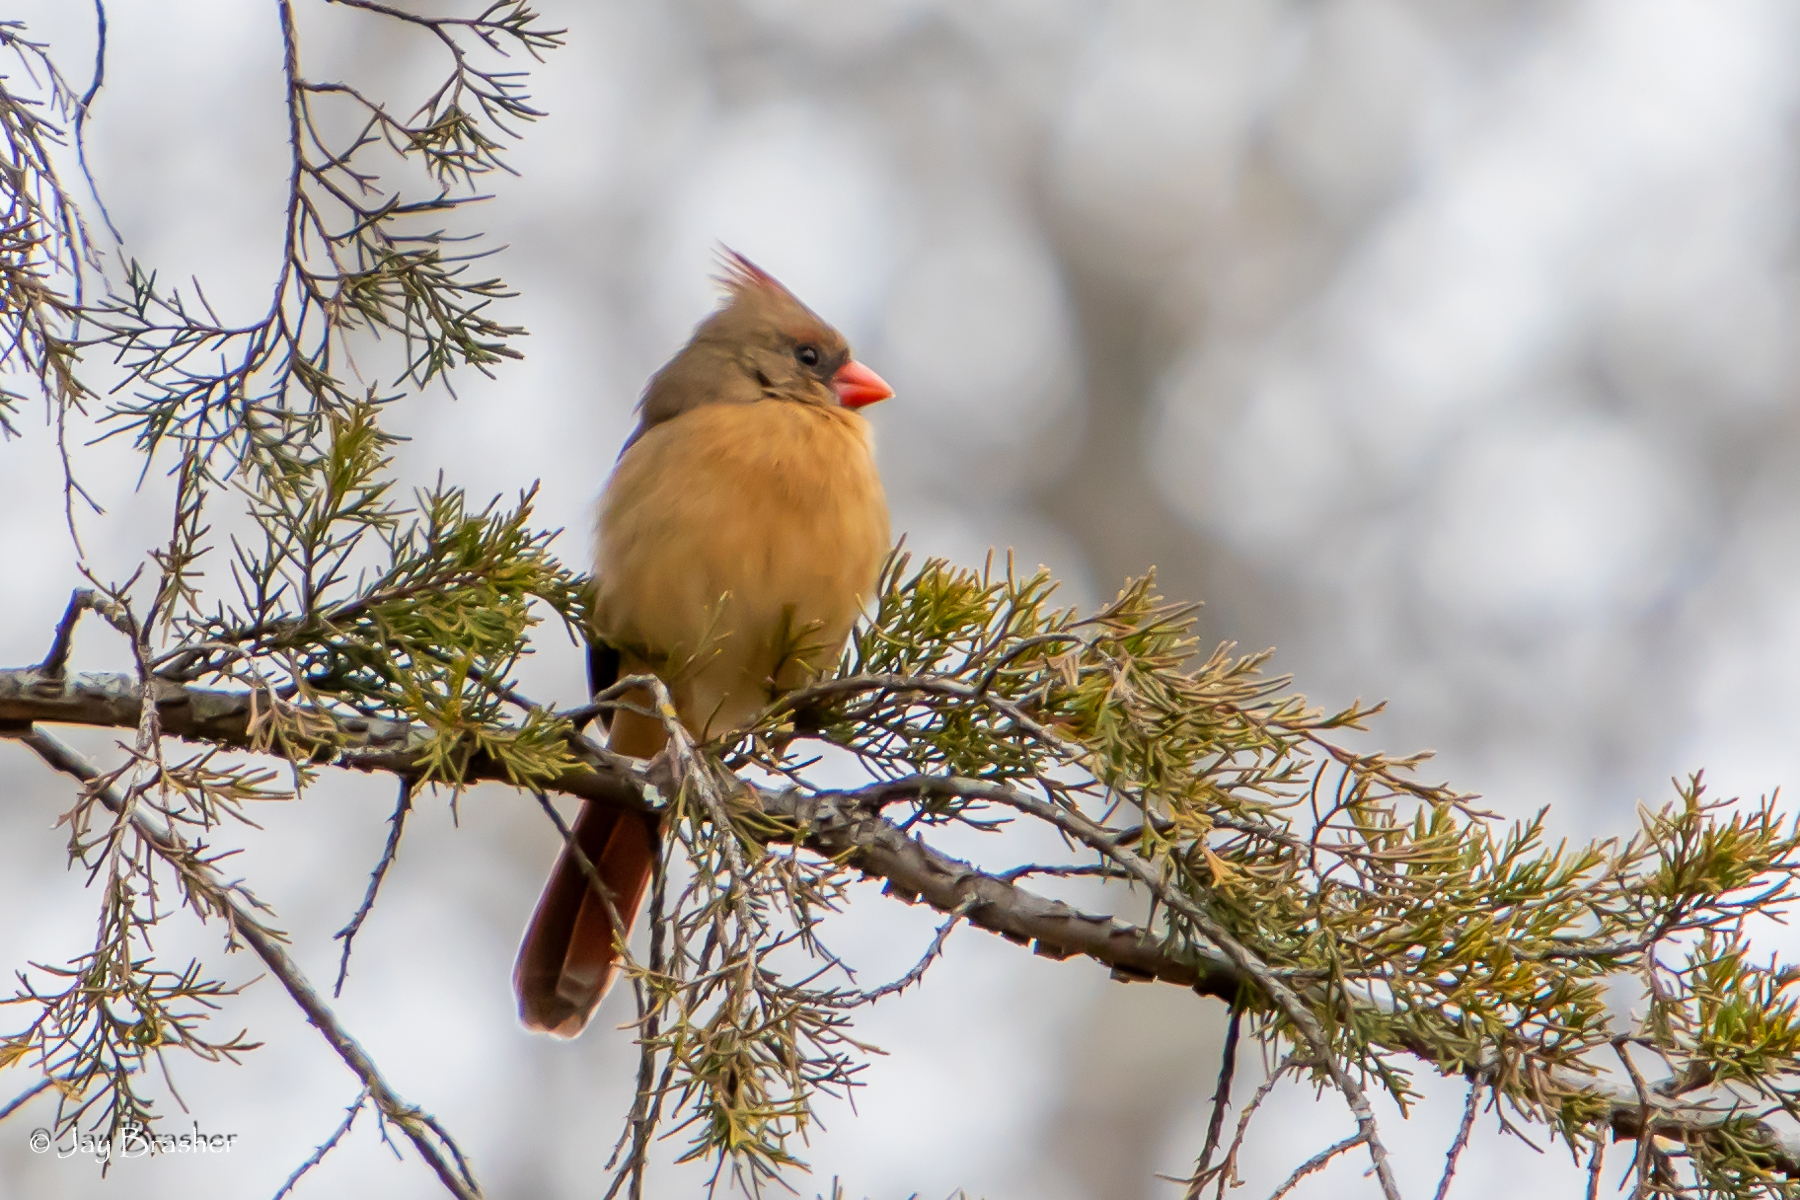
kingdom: Animalia
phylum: Chordata
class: Aves
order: Passeriformes
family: Cardinalidae
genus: Cardinalis
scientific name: Cardinalis cardinalis
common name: Northern cardinal
